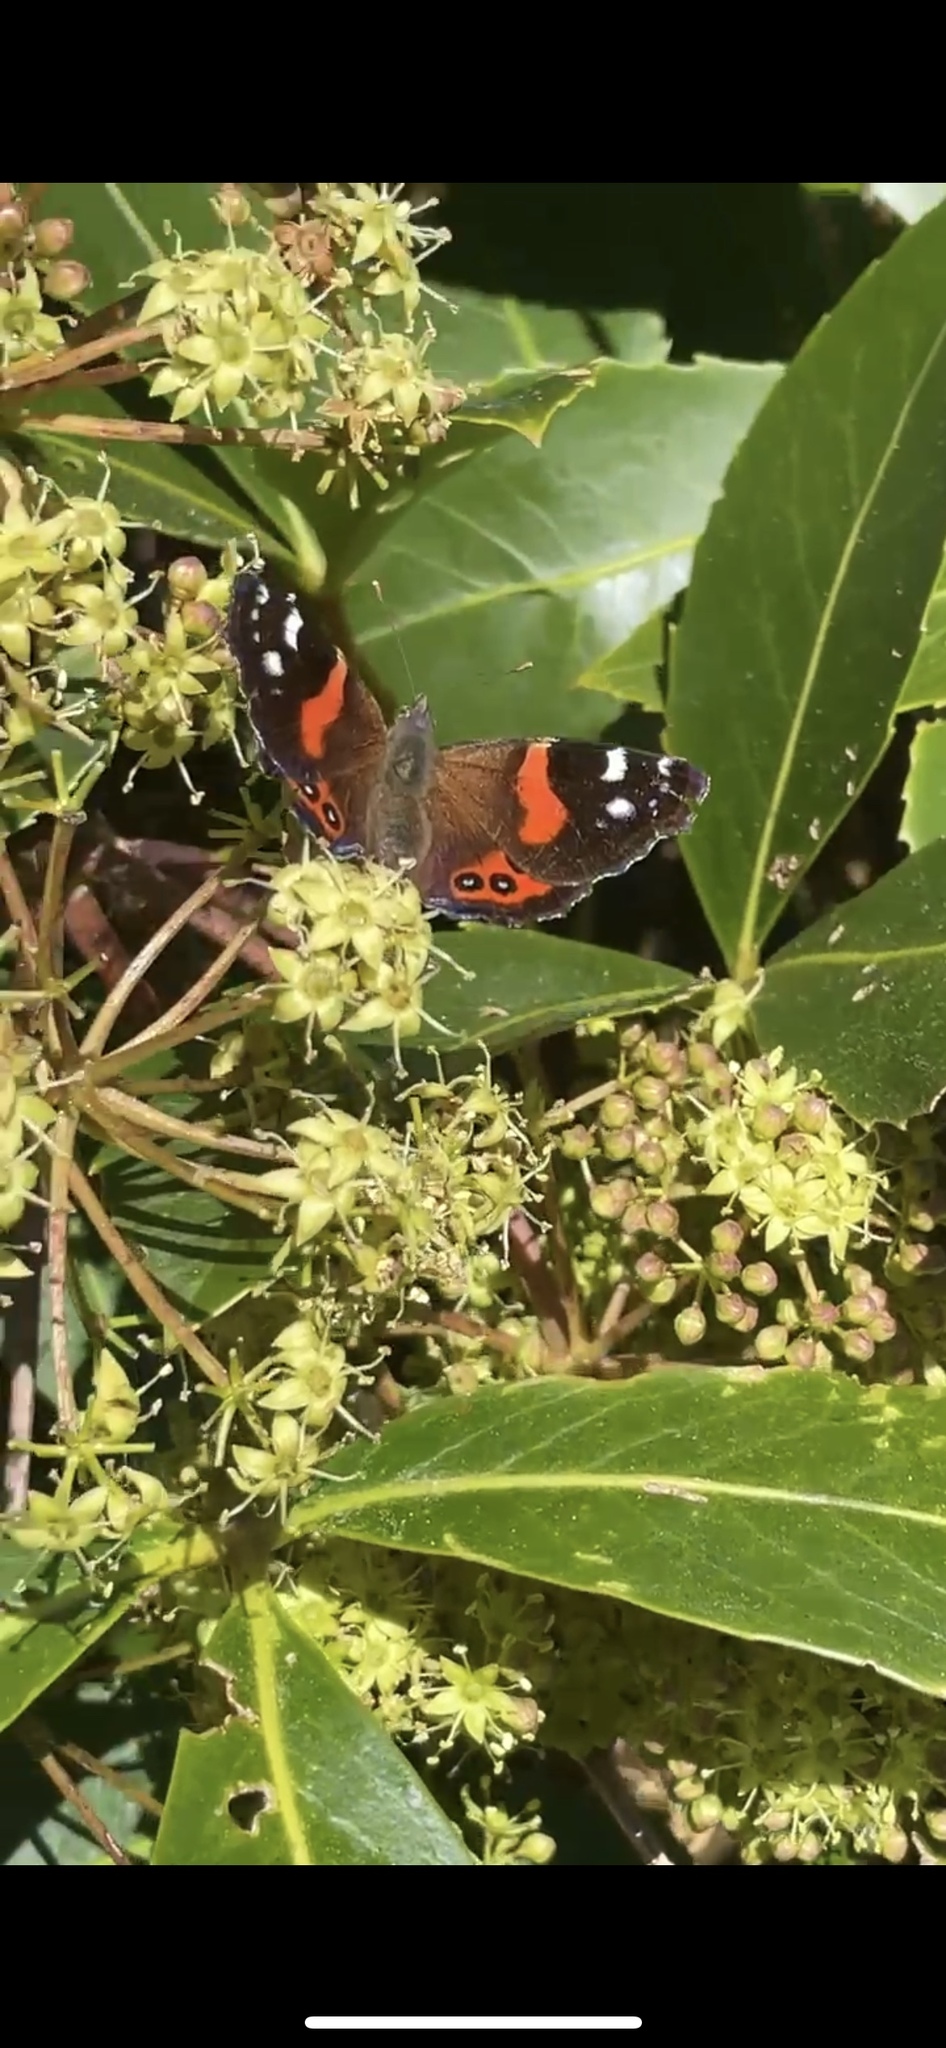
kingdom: Animalia
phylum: Arthropoda
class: Insecta
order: Lepidoptera
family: Nymphalidae
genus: Vanessa
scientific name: Vanessa gonerilla
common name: New zealand red admiral
